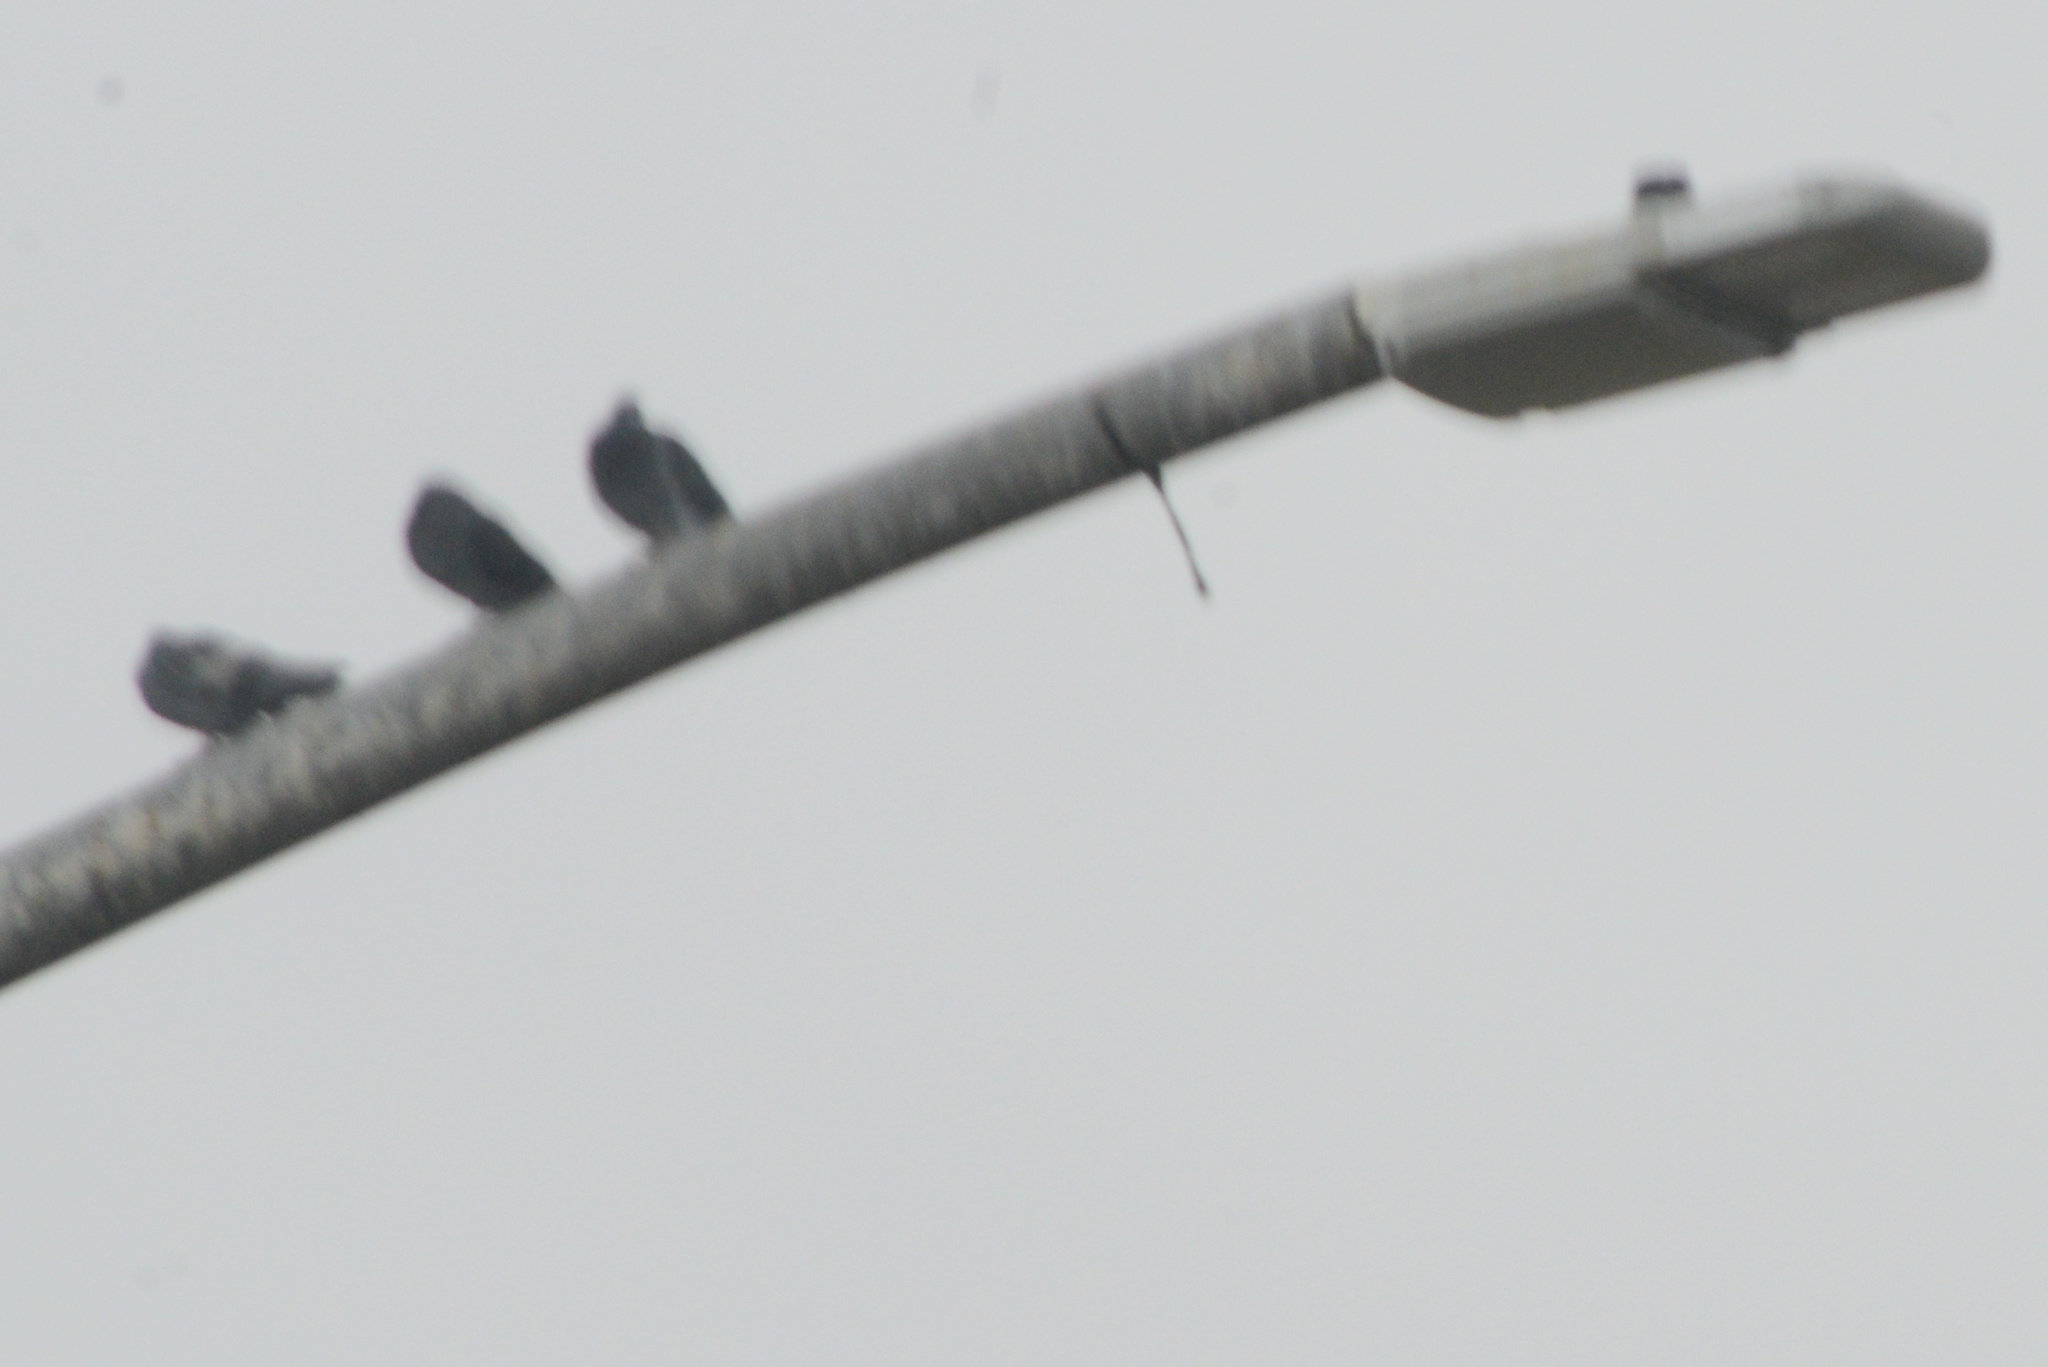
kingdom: Animalia
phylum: Chordata
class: Aves
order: Columbiformes
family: Columbidae
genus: Columba
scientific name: Columba livia
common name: Rock pigeon
